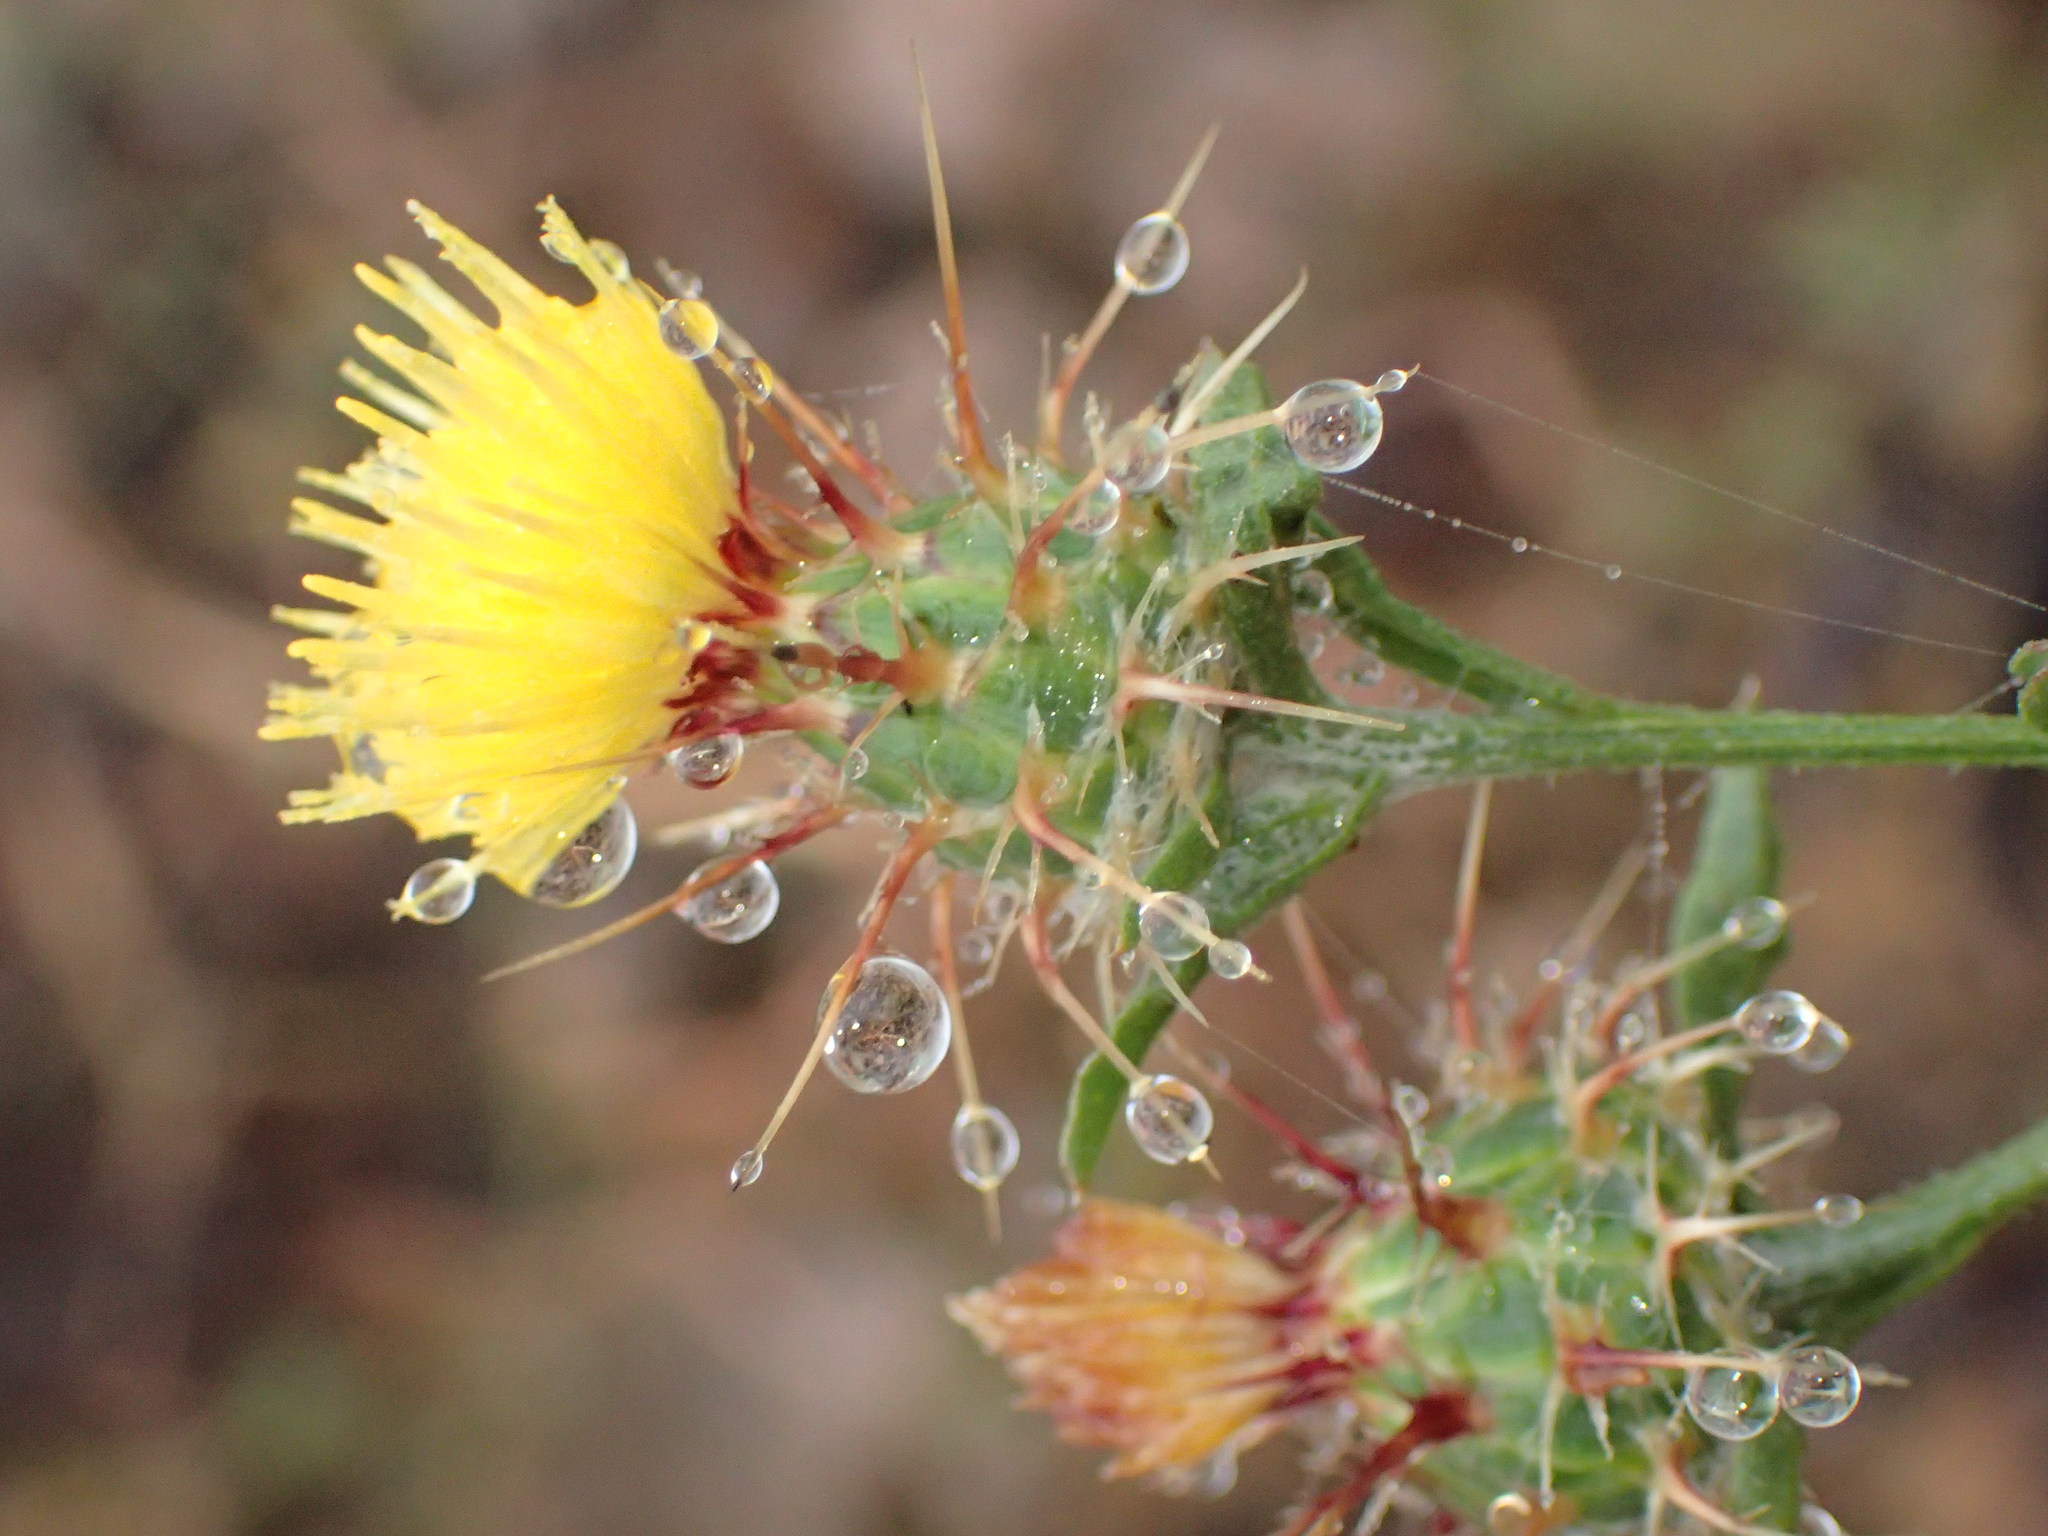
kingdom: Plantae
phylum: Tracheophyta
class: Magnoliopsida
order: Asterales
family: Asteraceae
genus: Centaurea
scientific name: Centaurea melitensis
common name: Maltese star-thistle
